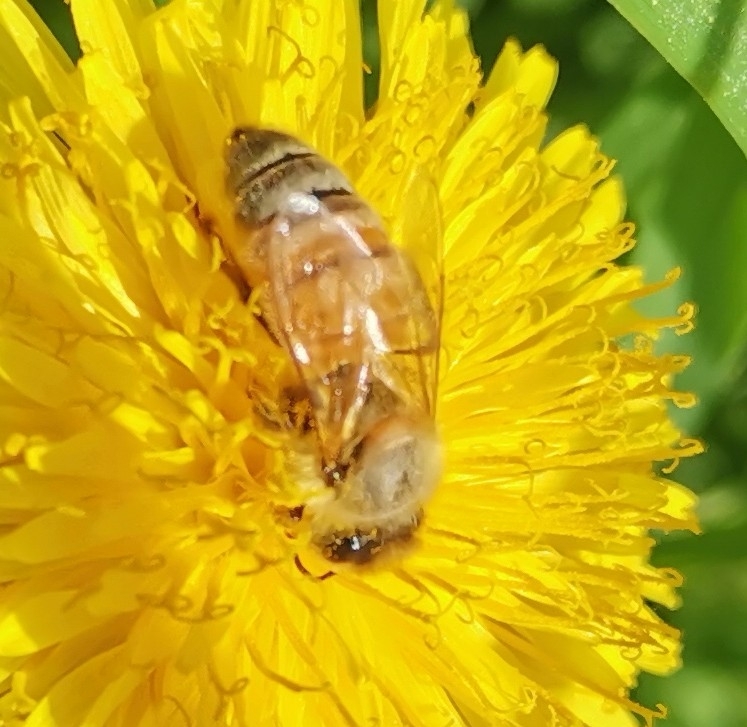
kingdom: Animalia
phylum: Arthropoda
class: Insecta
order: Hymenoptera
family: Apidae
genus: Apis
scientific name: Apis mellifera
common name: Honey bee
